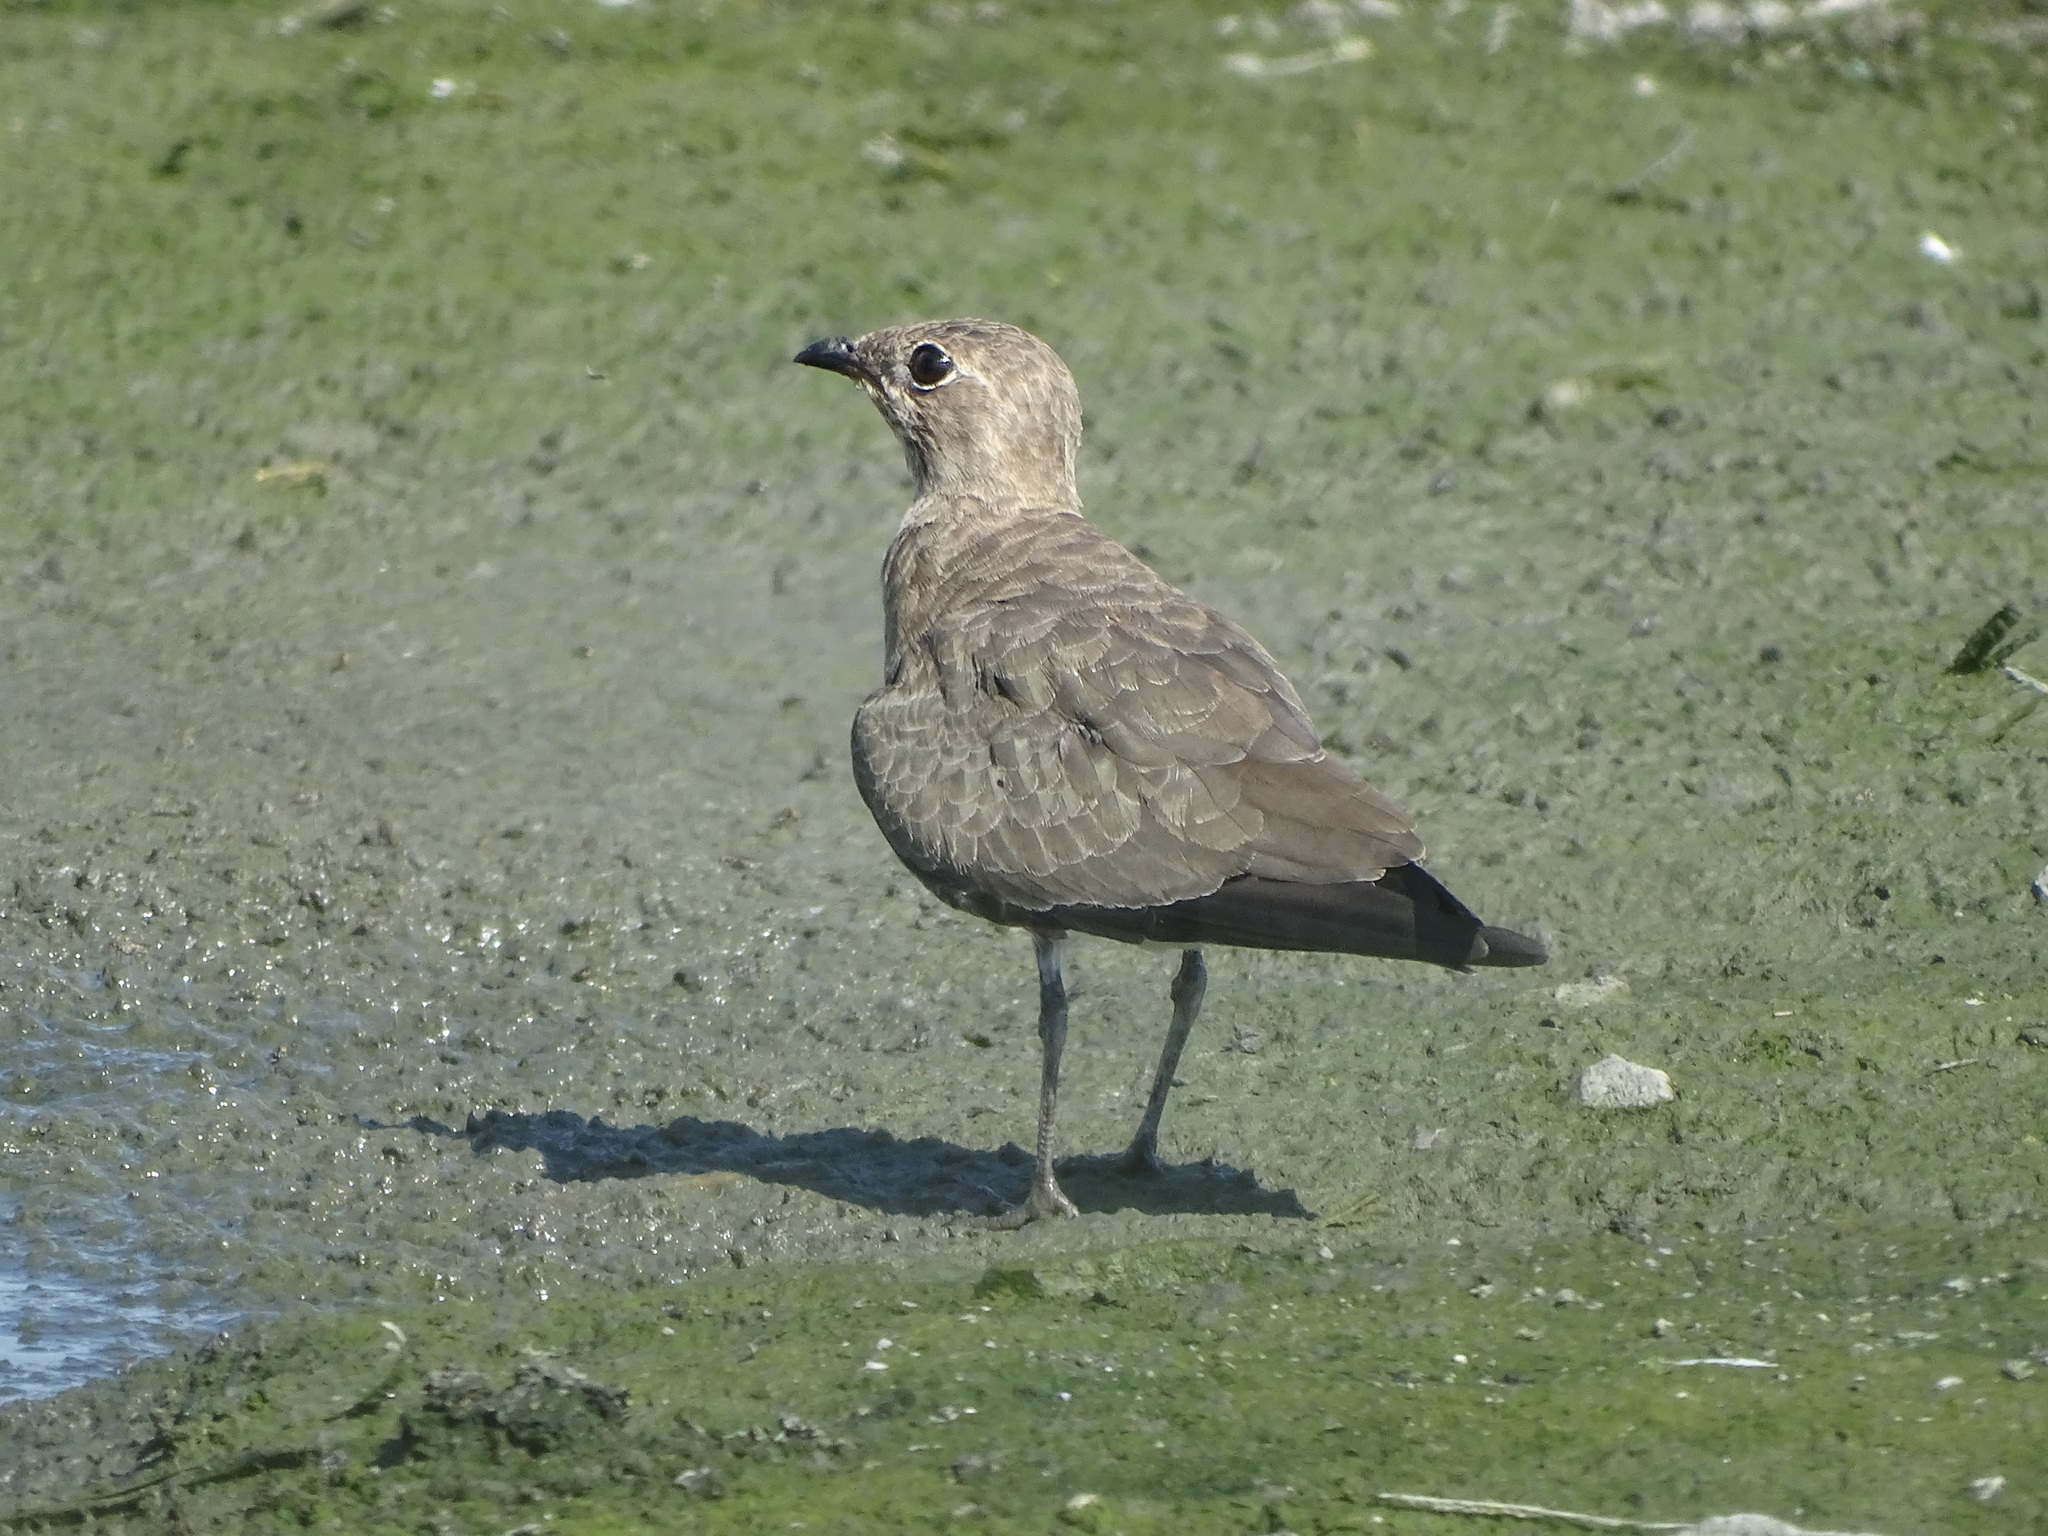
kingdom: Animalia
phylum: Chordata
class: Aves
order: Charadriiformes
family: Glareolidae
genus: Glareola
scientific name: Glareola maldivarum
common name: Oriental pratincole
